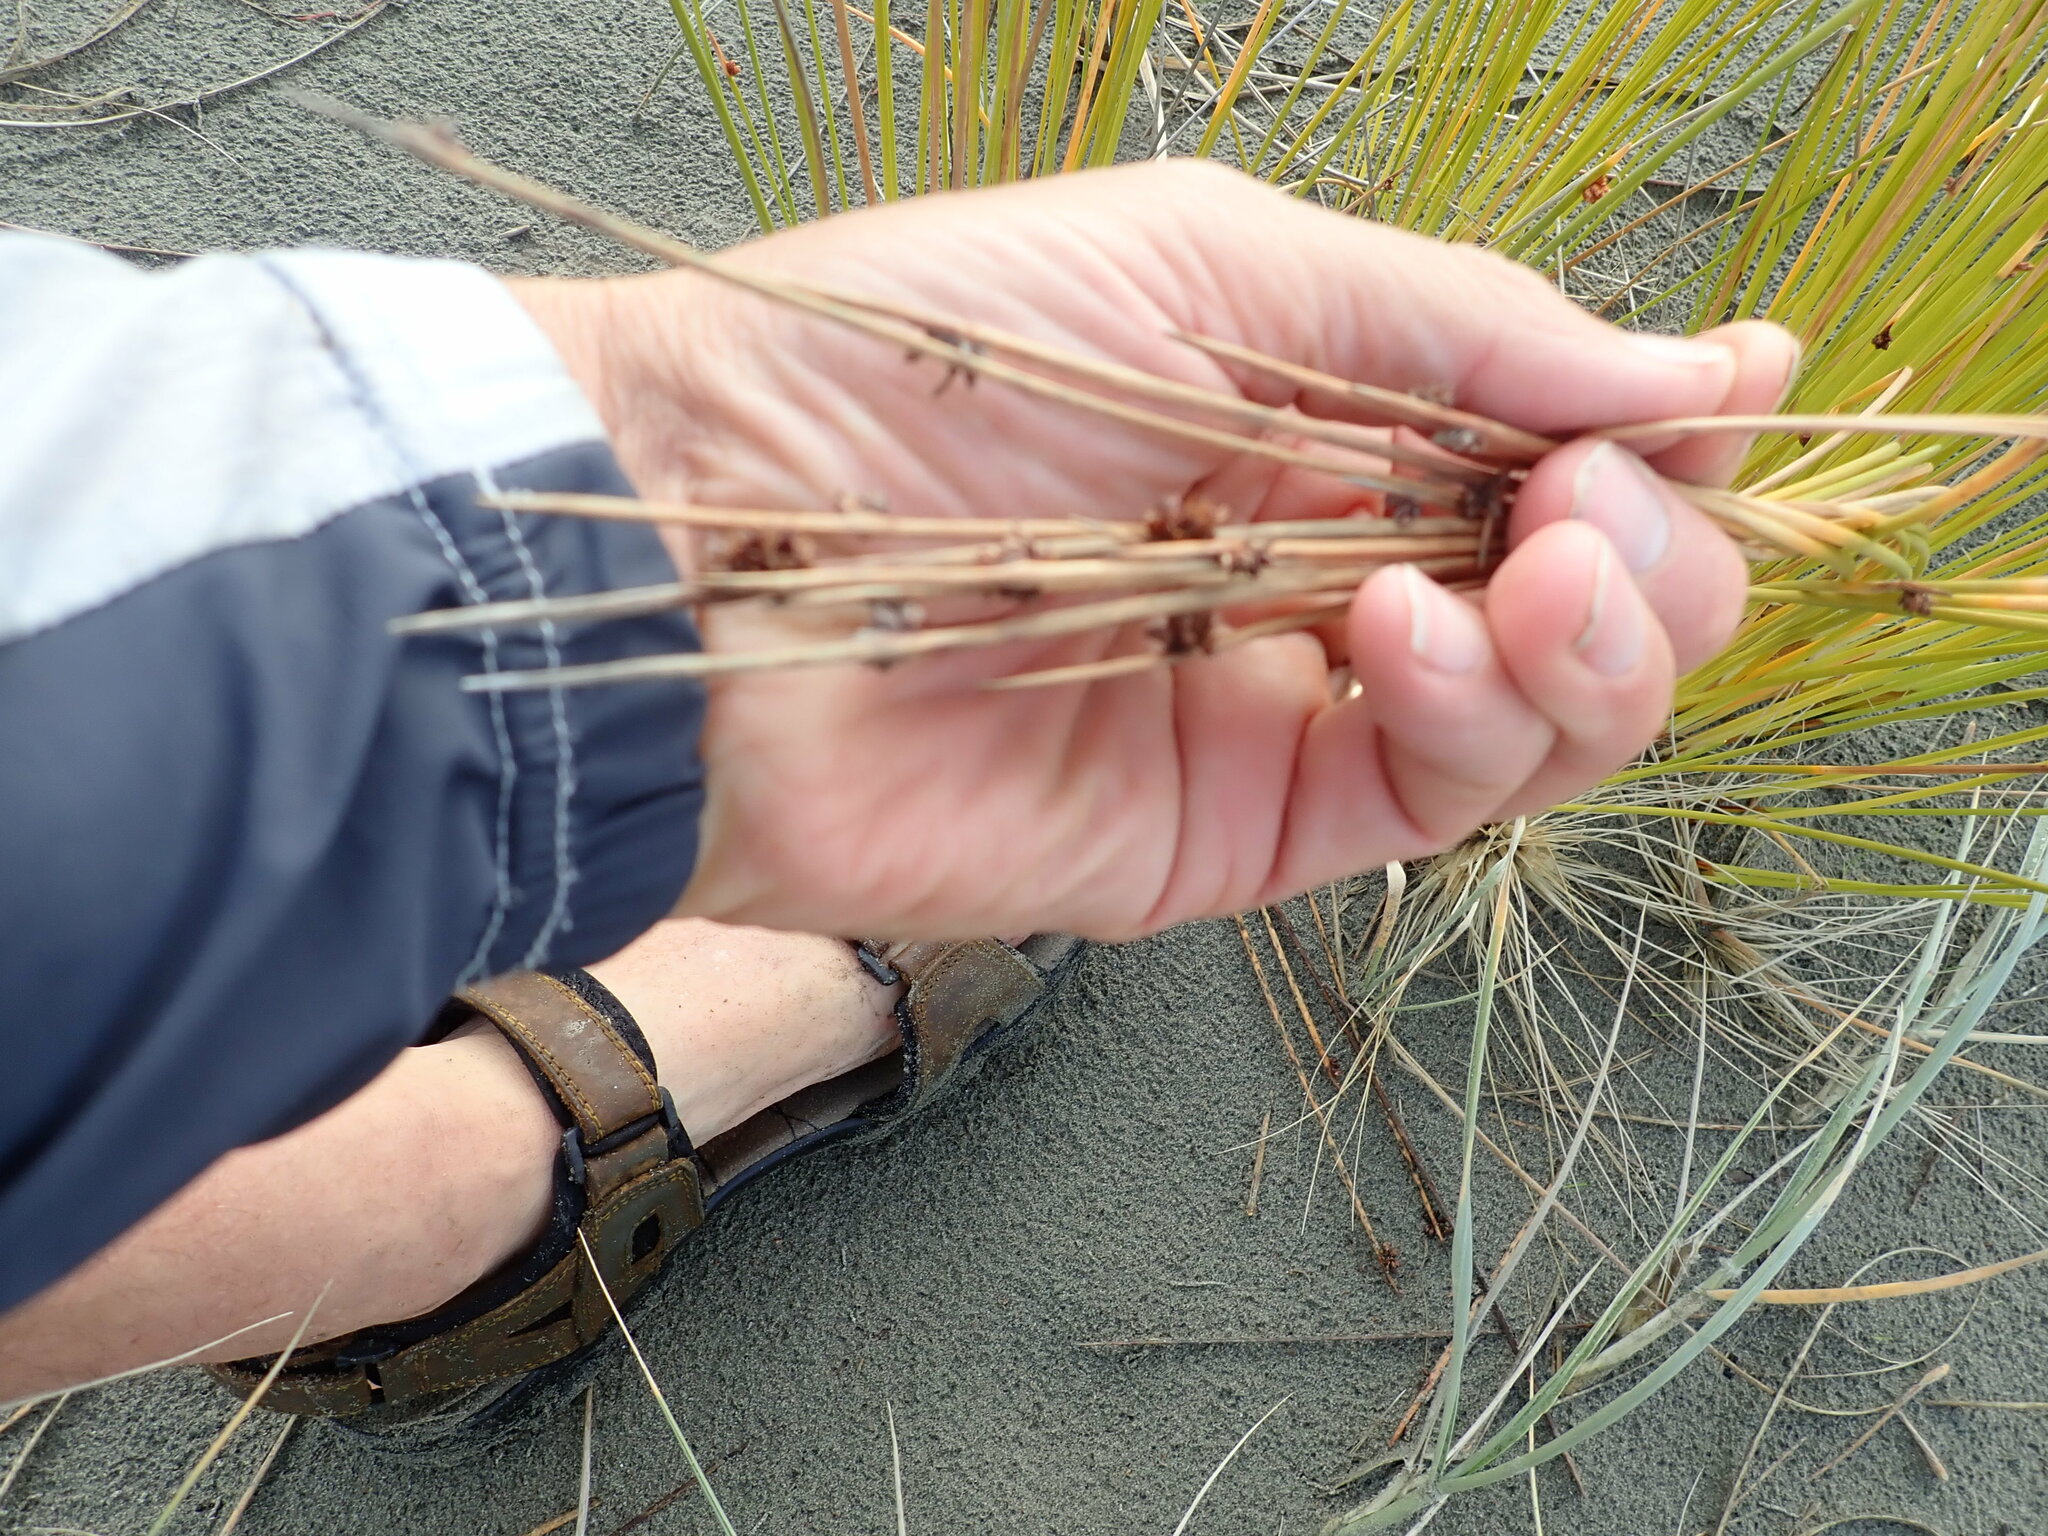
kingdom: Plantae
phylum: Tracheophyta
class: Liliopsida
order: Poales
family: Cyperaceae
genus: Ficinia
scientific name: Ficinia nodosa
